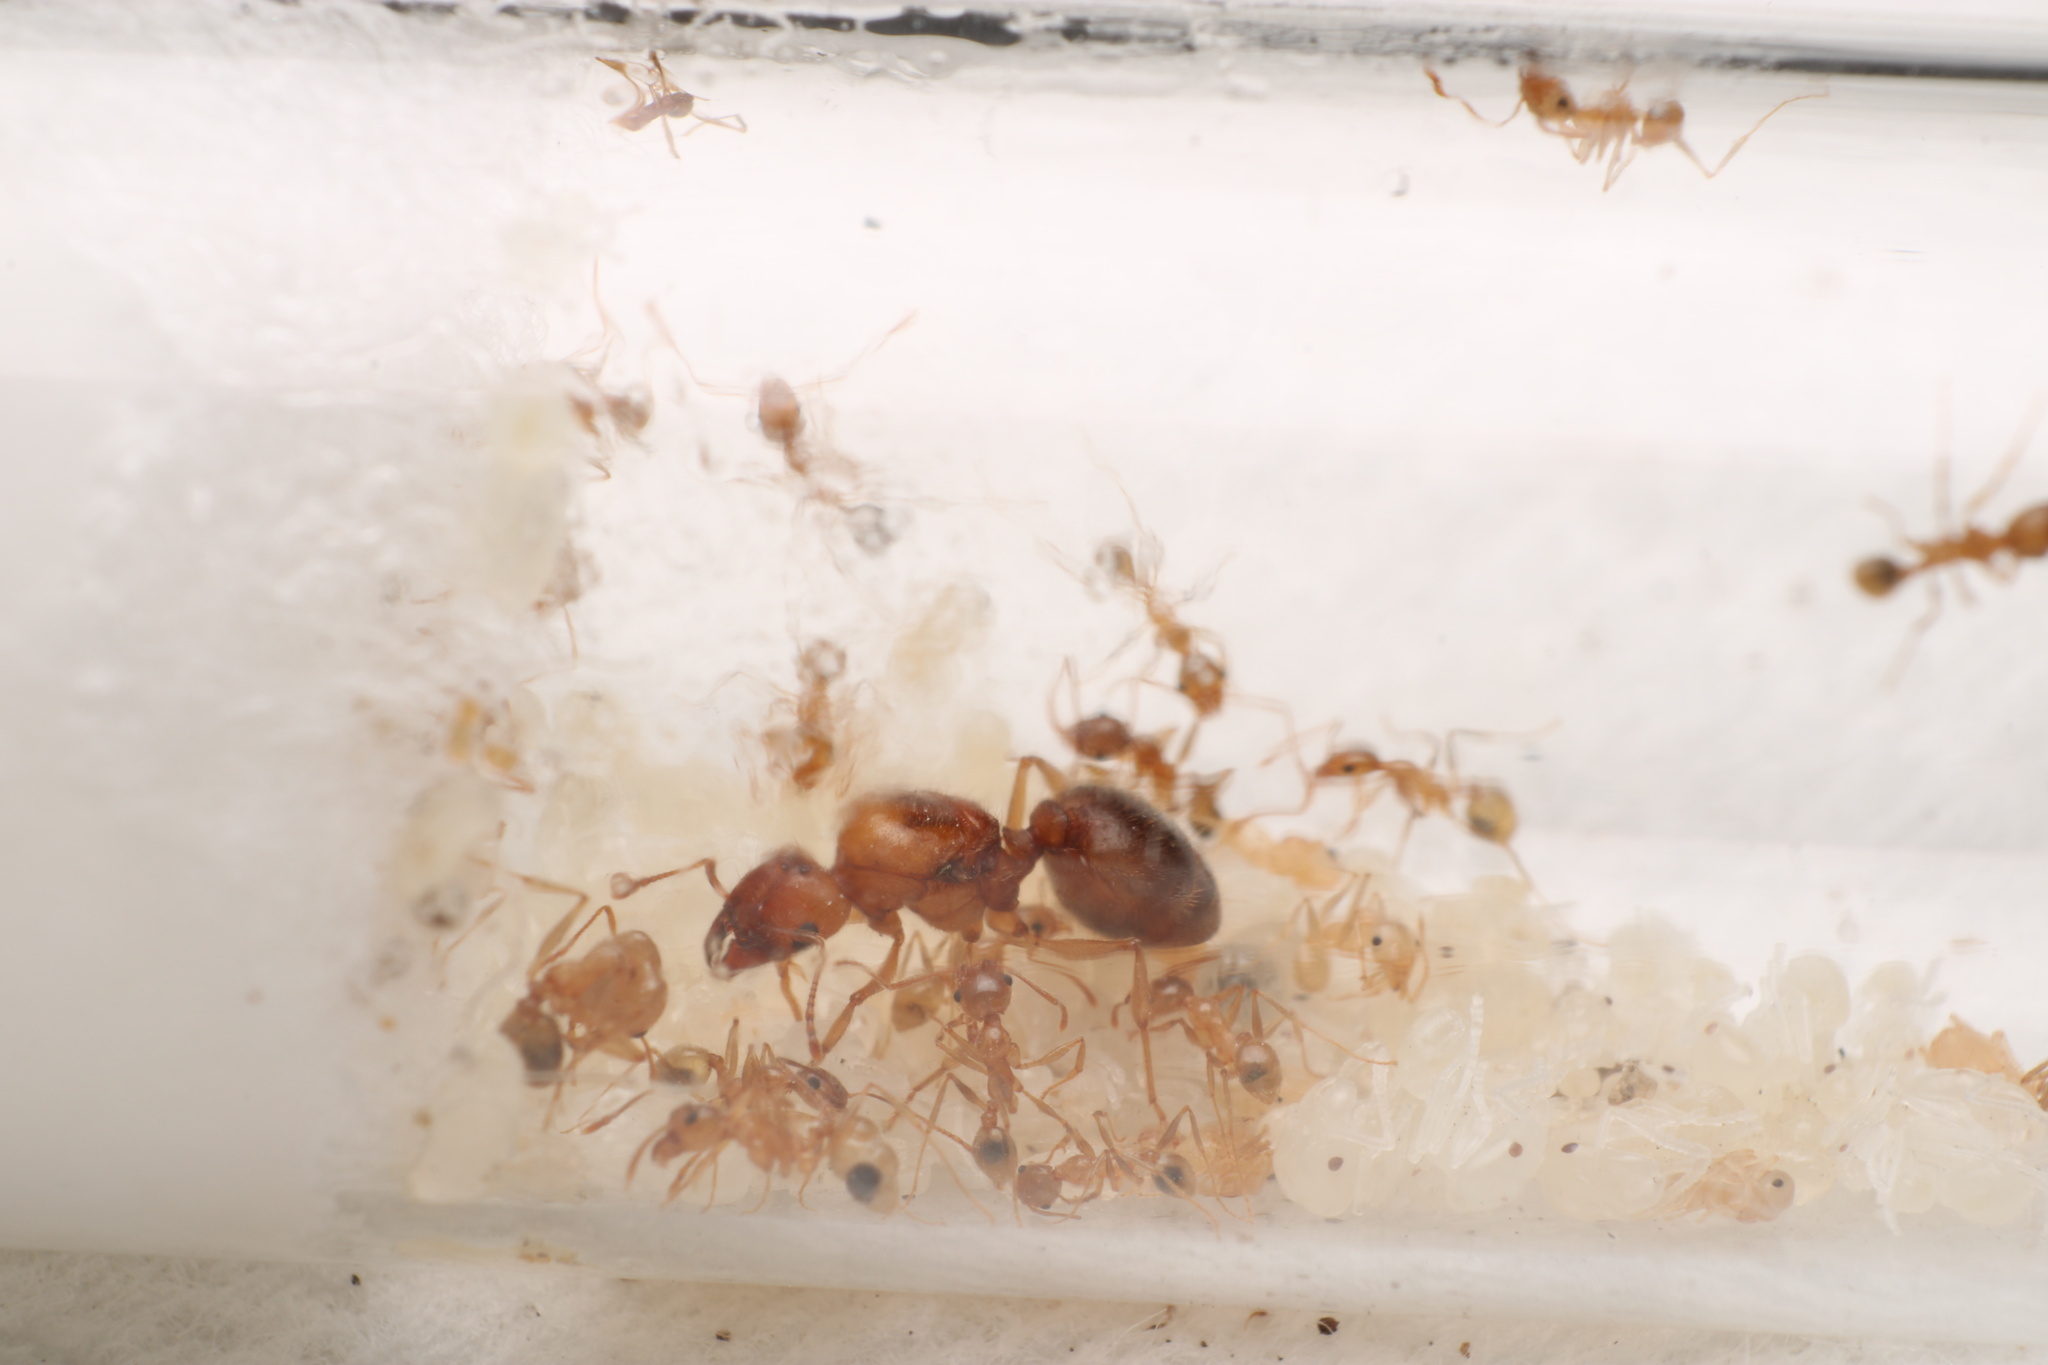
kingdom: Animalia
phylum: Arthropoda
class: Insecta
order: Hymenoptera
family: Formicidae
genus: Pheidole
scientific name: Pheidole morrisii
